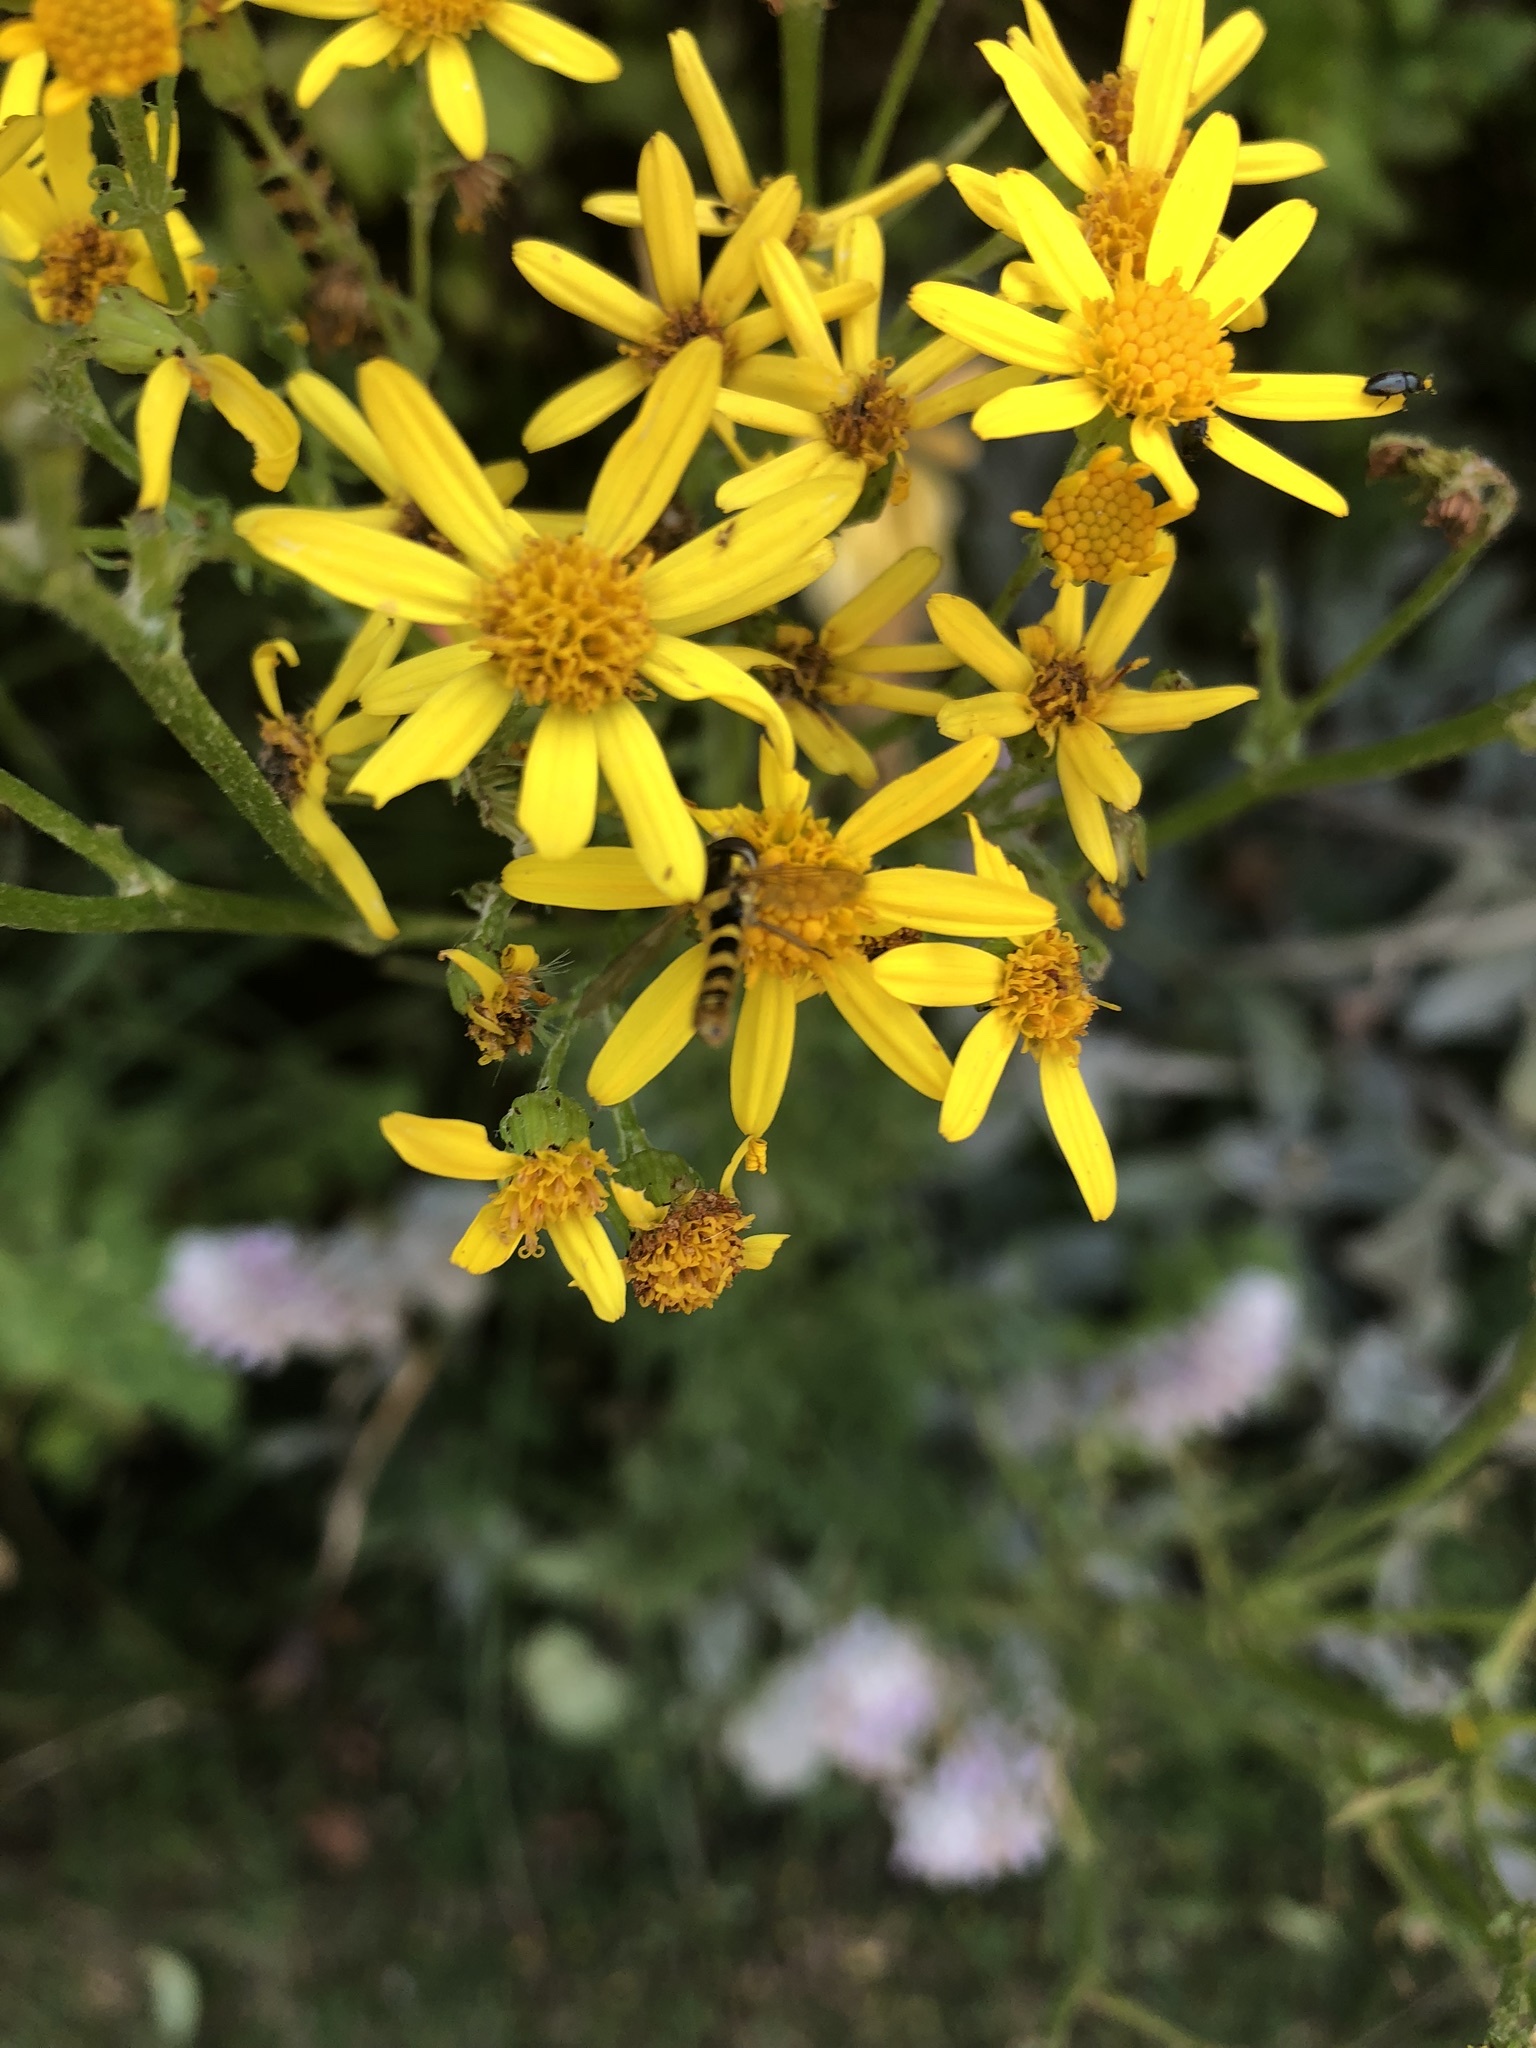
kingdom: Plantae
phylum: Tracheophyta
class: Magnoliopsida
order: Asterales
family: Asteraceae
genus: Jacobaea
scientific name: Jacobaea vulgaris
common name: Stinking willie
